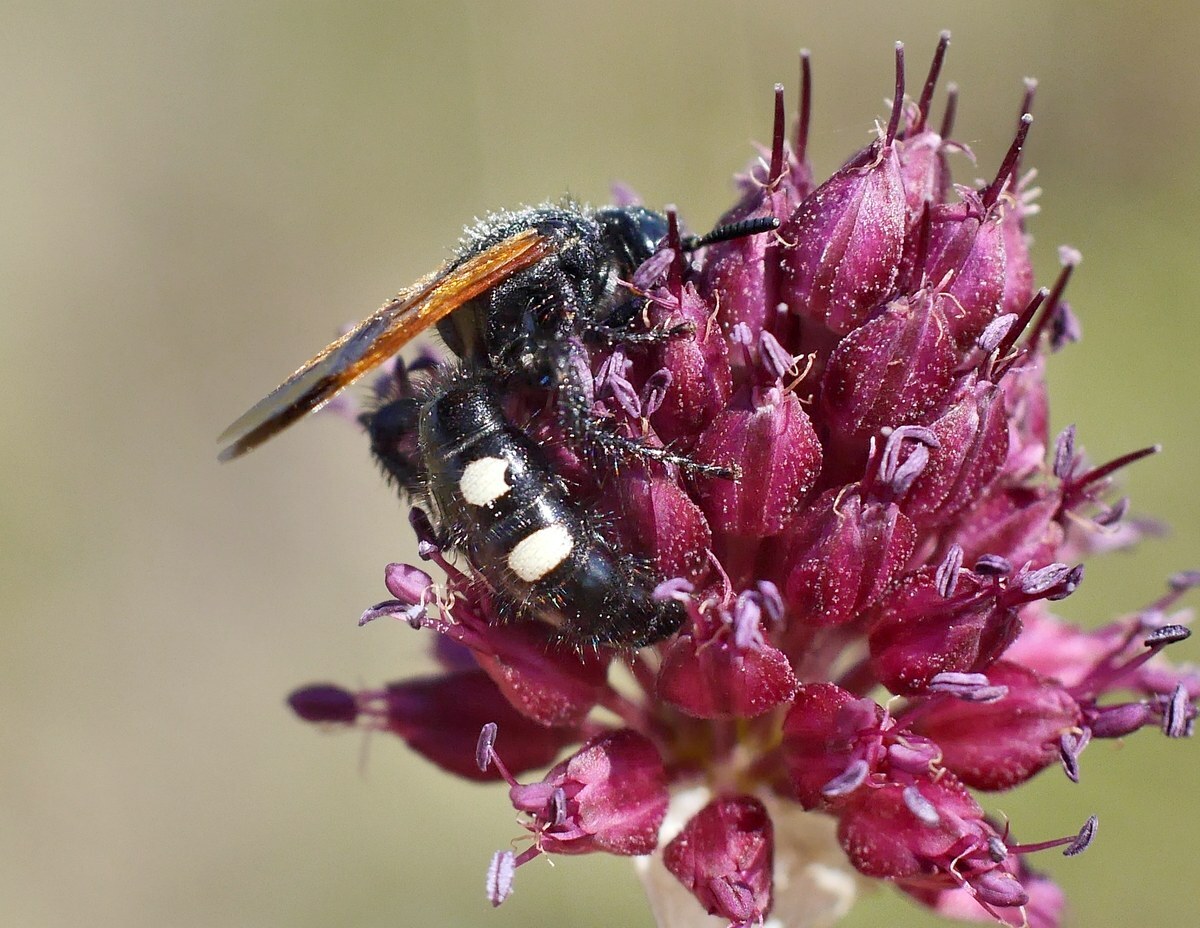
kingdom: Animalia
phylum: Arthropoda
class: Insecta
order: Hymenoptera
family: Vespidae
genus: Vespa
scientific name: Vespa sexmaculata
